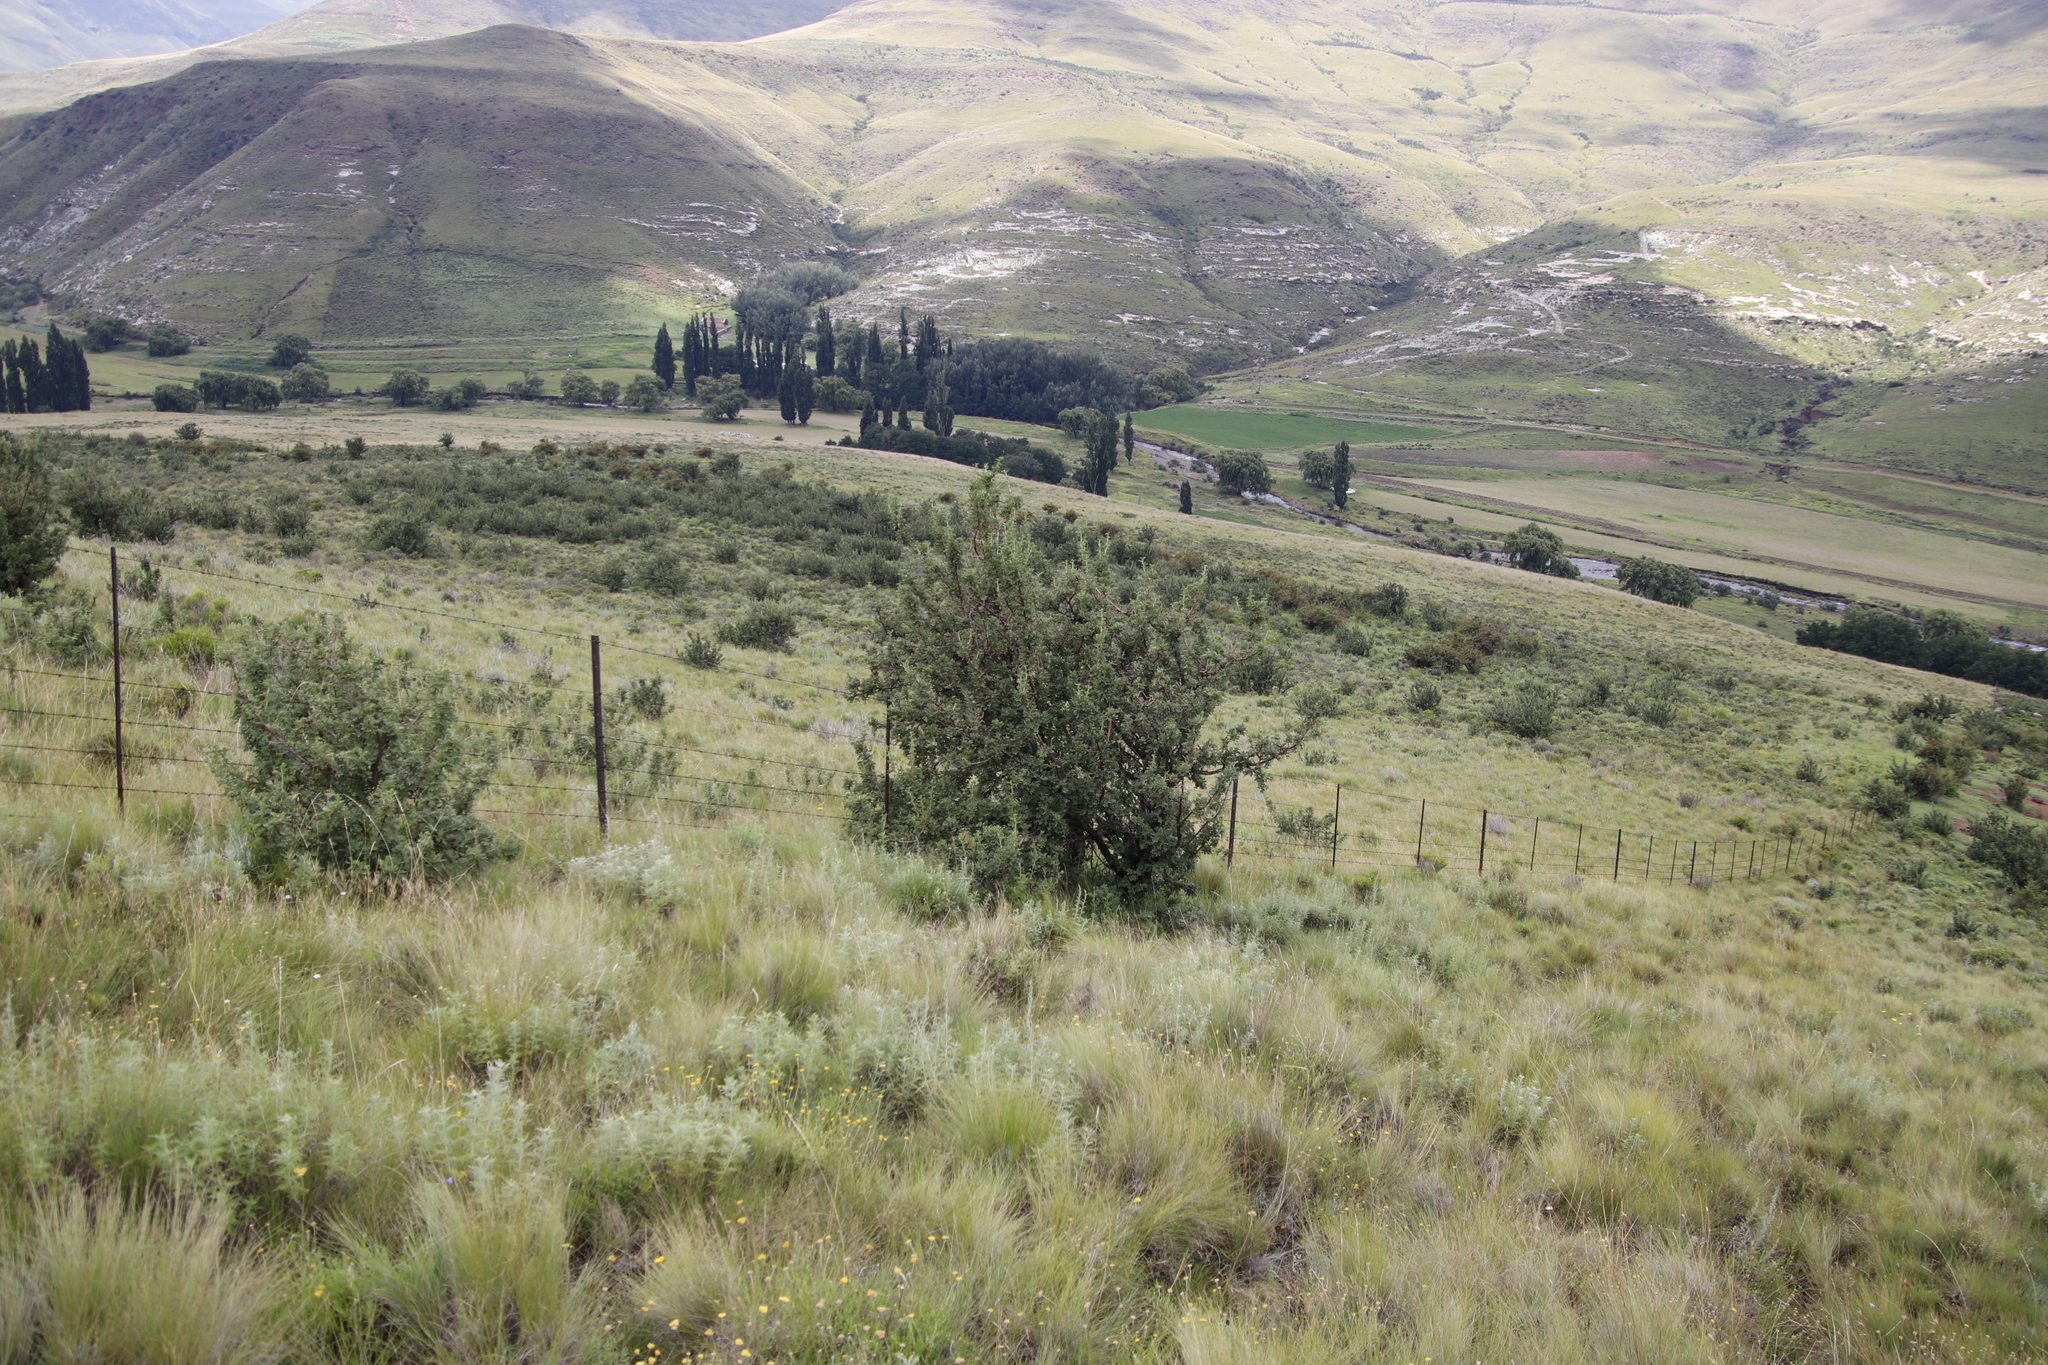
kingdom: Plantae
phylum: Tracheophyta
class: Magnoliopsida
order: Rosales
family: Rosaceae
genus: Leucosidea
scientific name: Leucosidea sericea
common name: Oldwood
